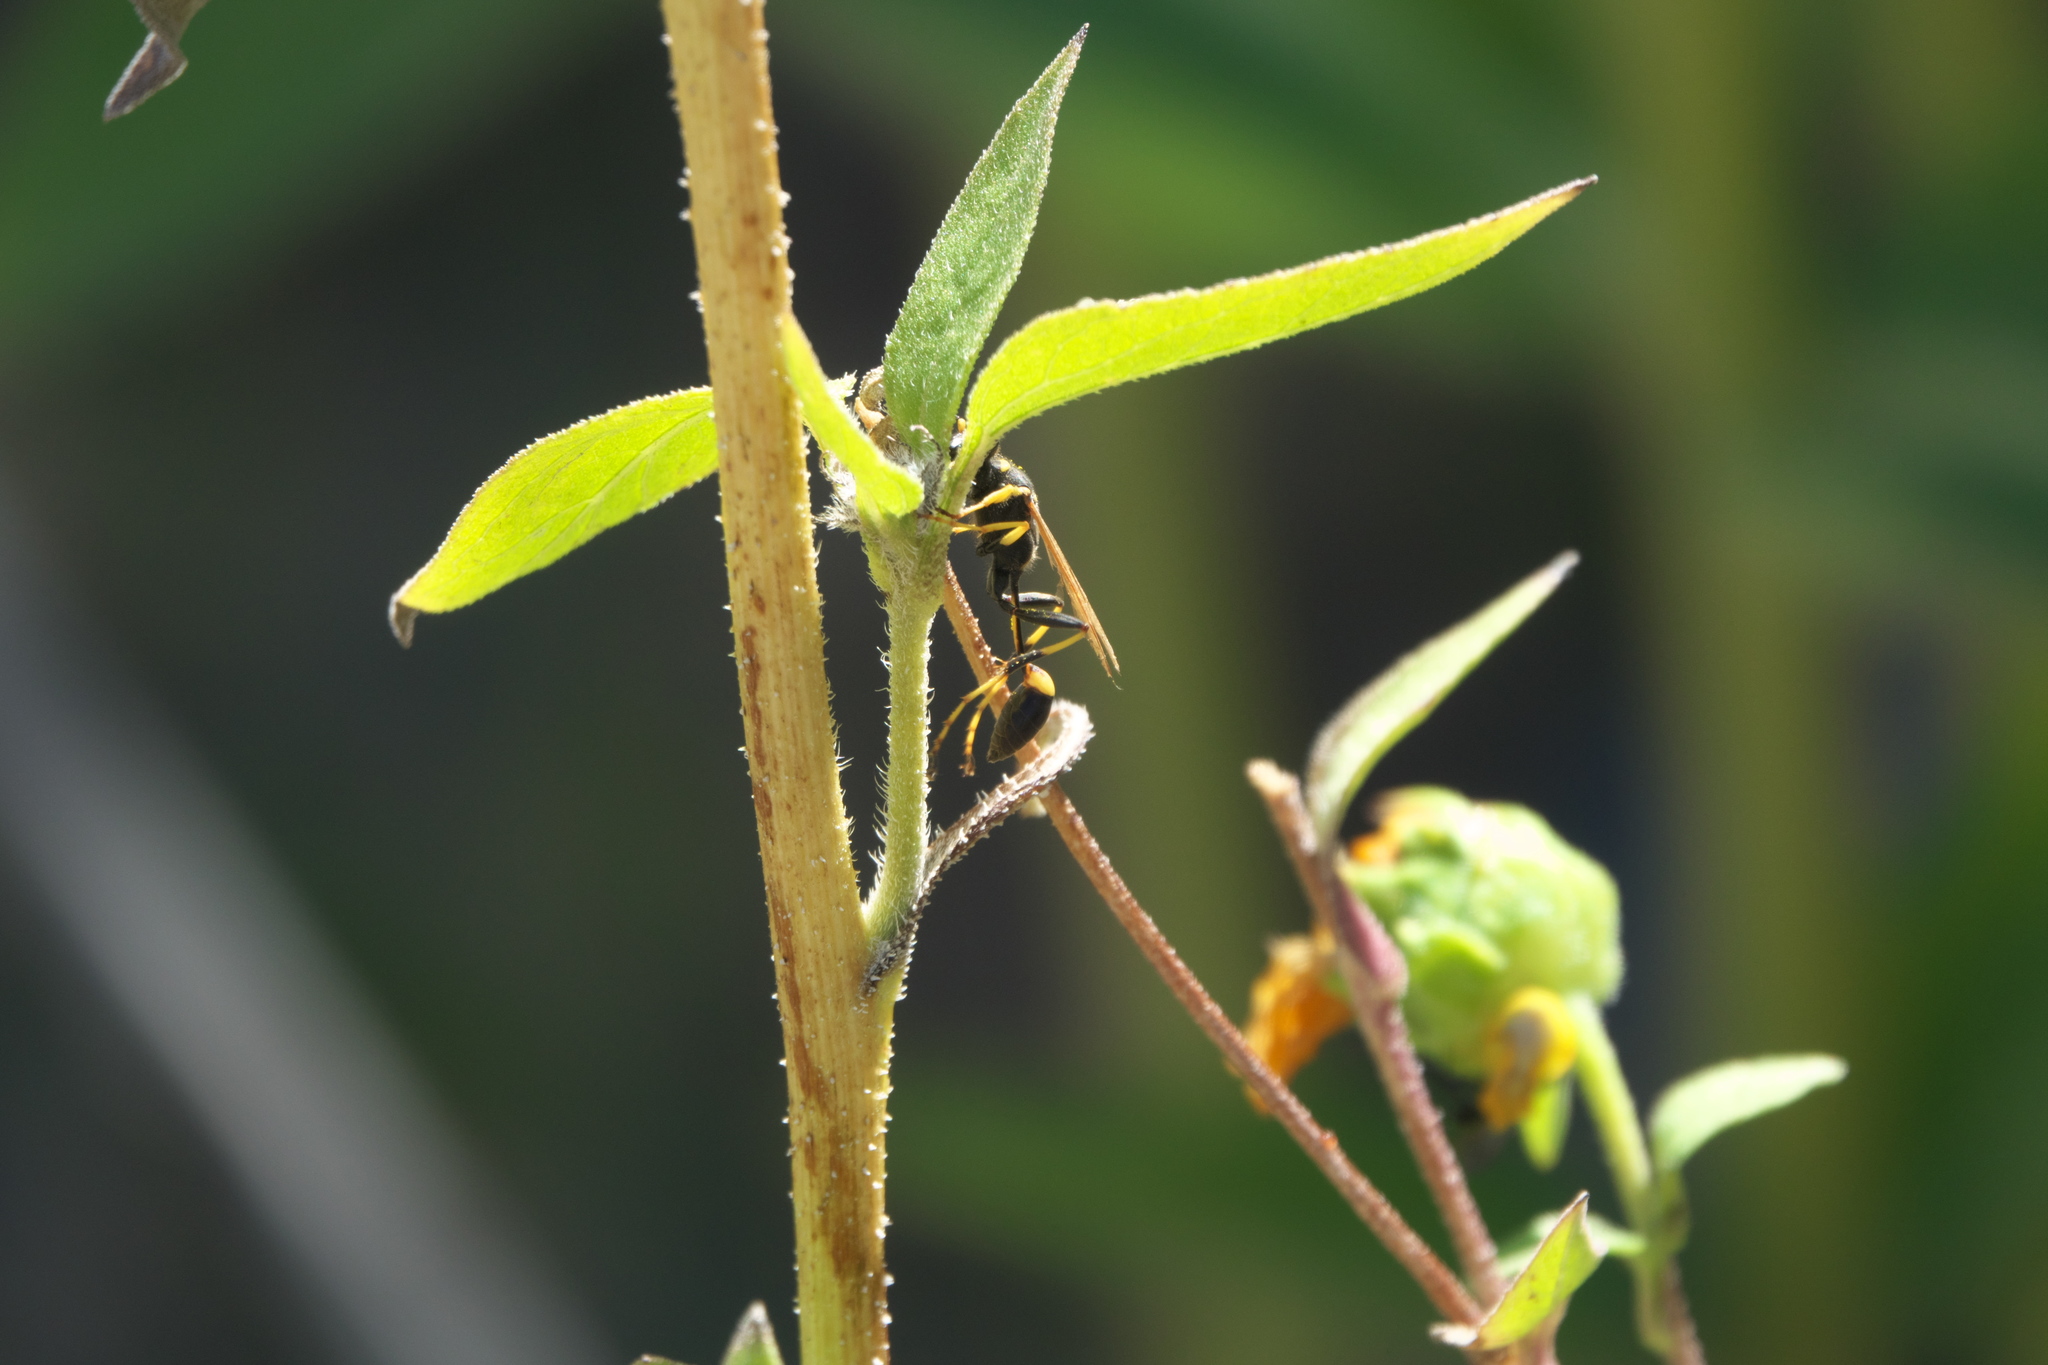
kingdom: Animalia
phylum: Arthropoda
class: Insecta
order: Hymenoptera
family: Sphecidae
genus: Sceliphron
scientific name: Sceliphron caementarium
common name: Mud dauber
